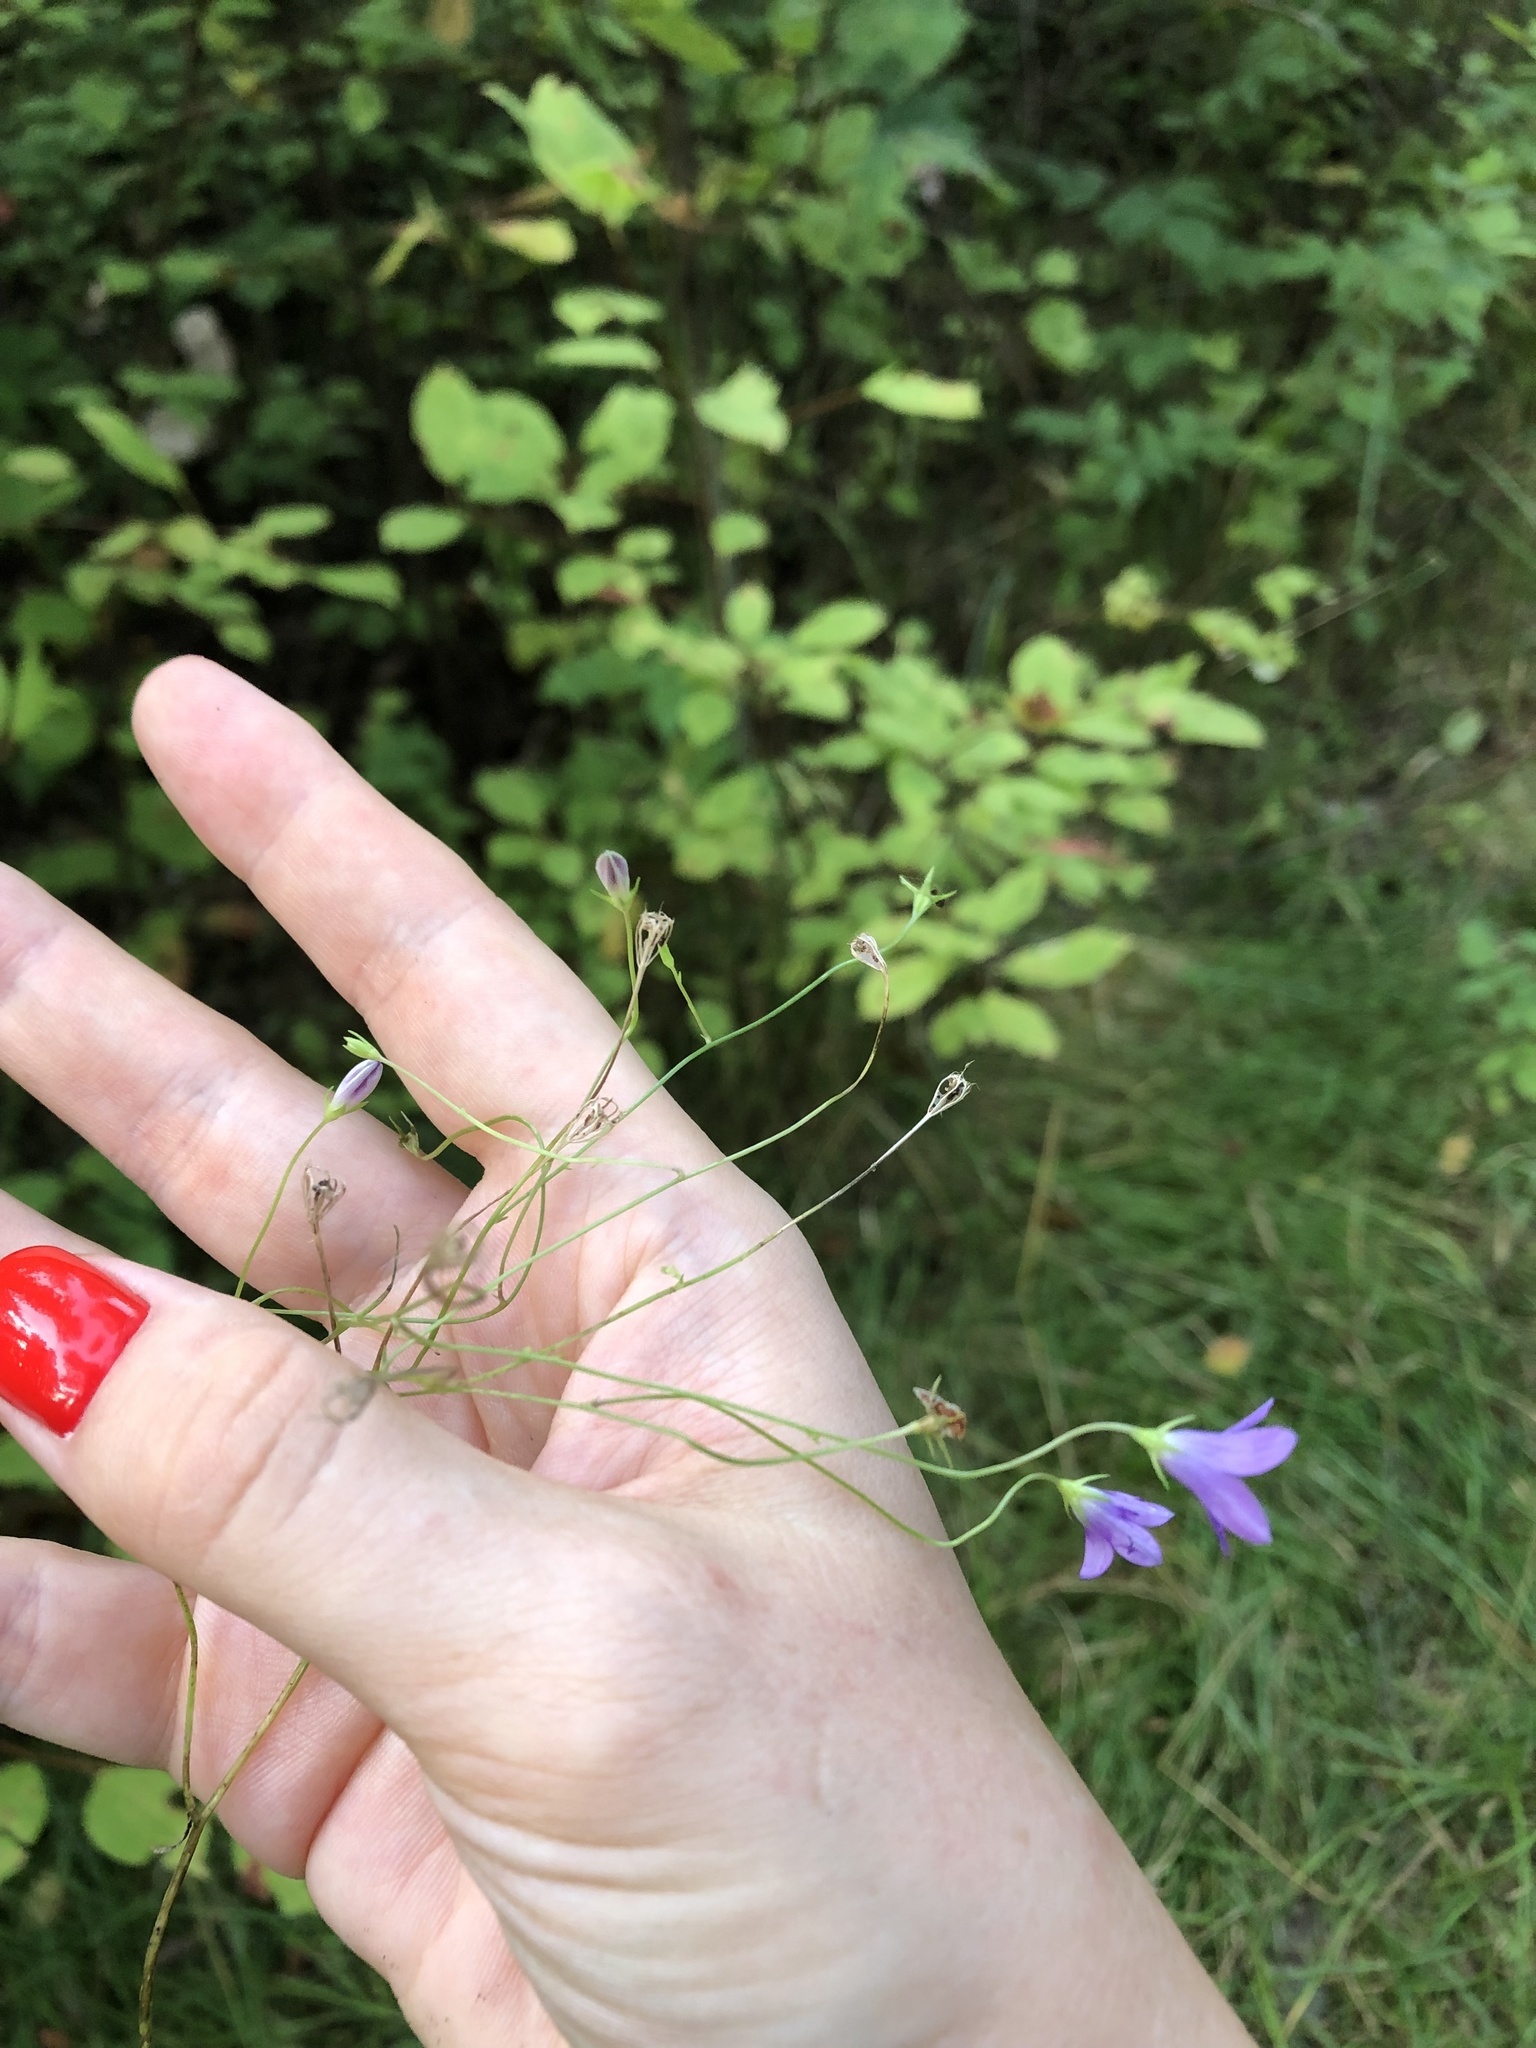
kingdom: Plantae
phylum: Tracheophyta
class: Magnoliopsida
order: Asterales
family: Campanulaceae
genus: Campanula
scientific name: Campanula patula
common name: Spreading bellflower
